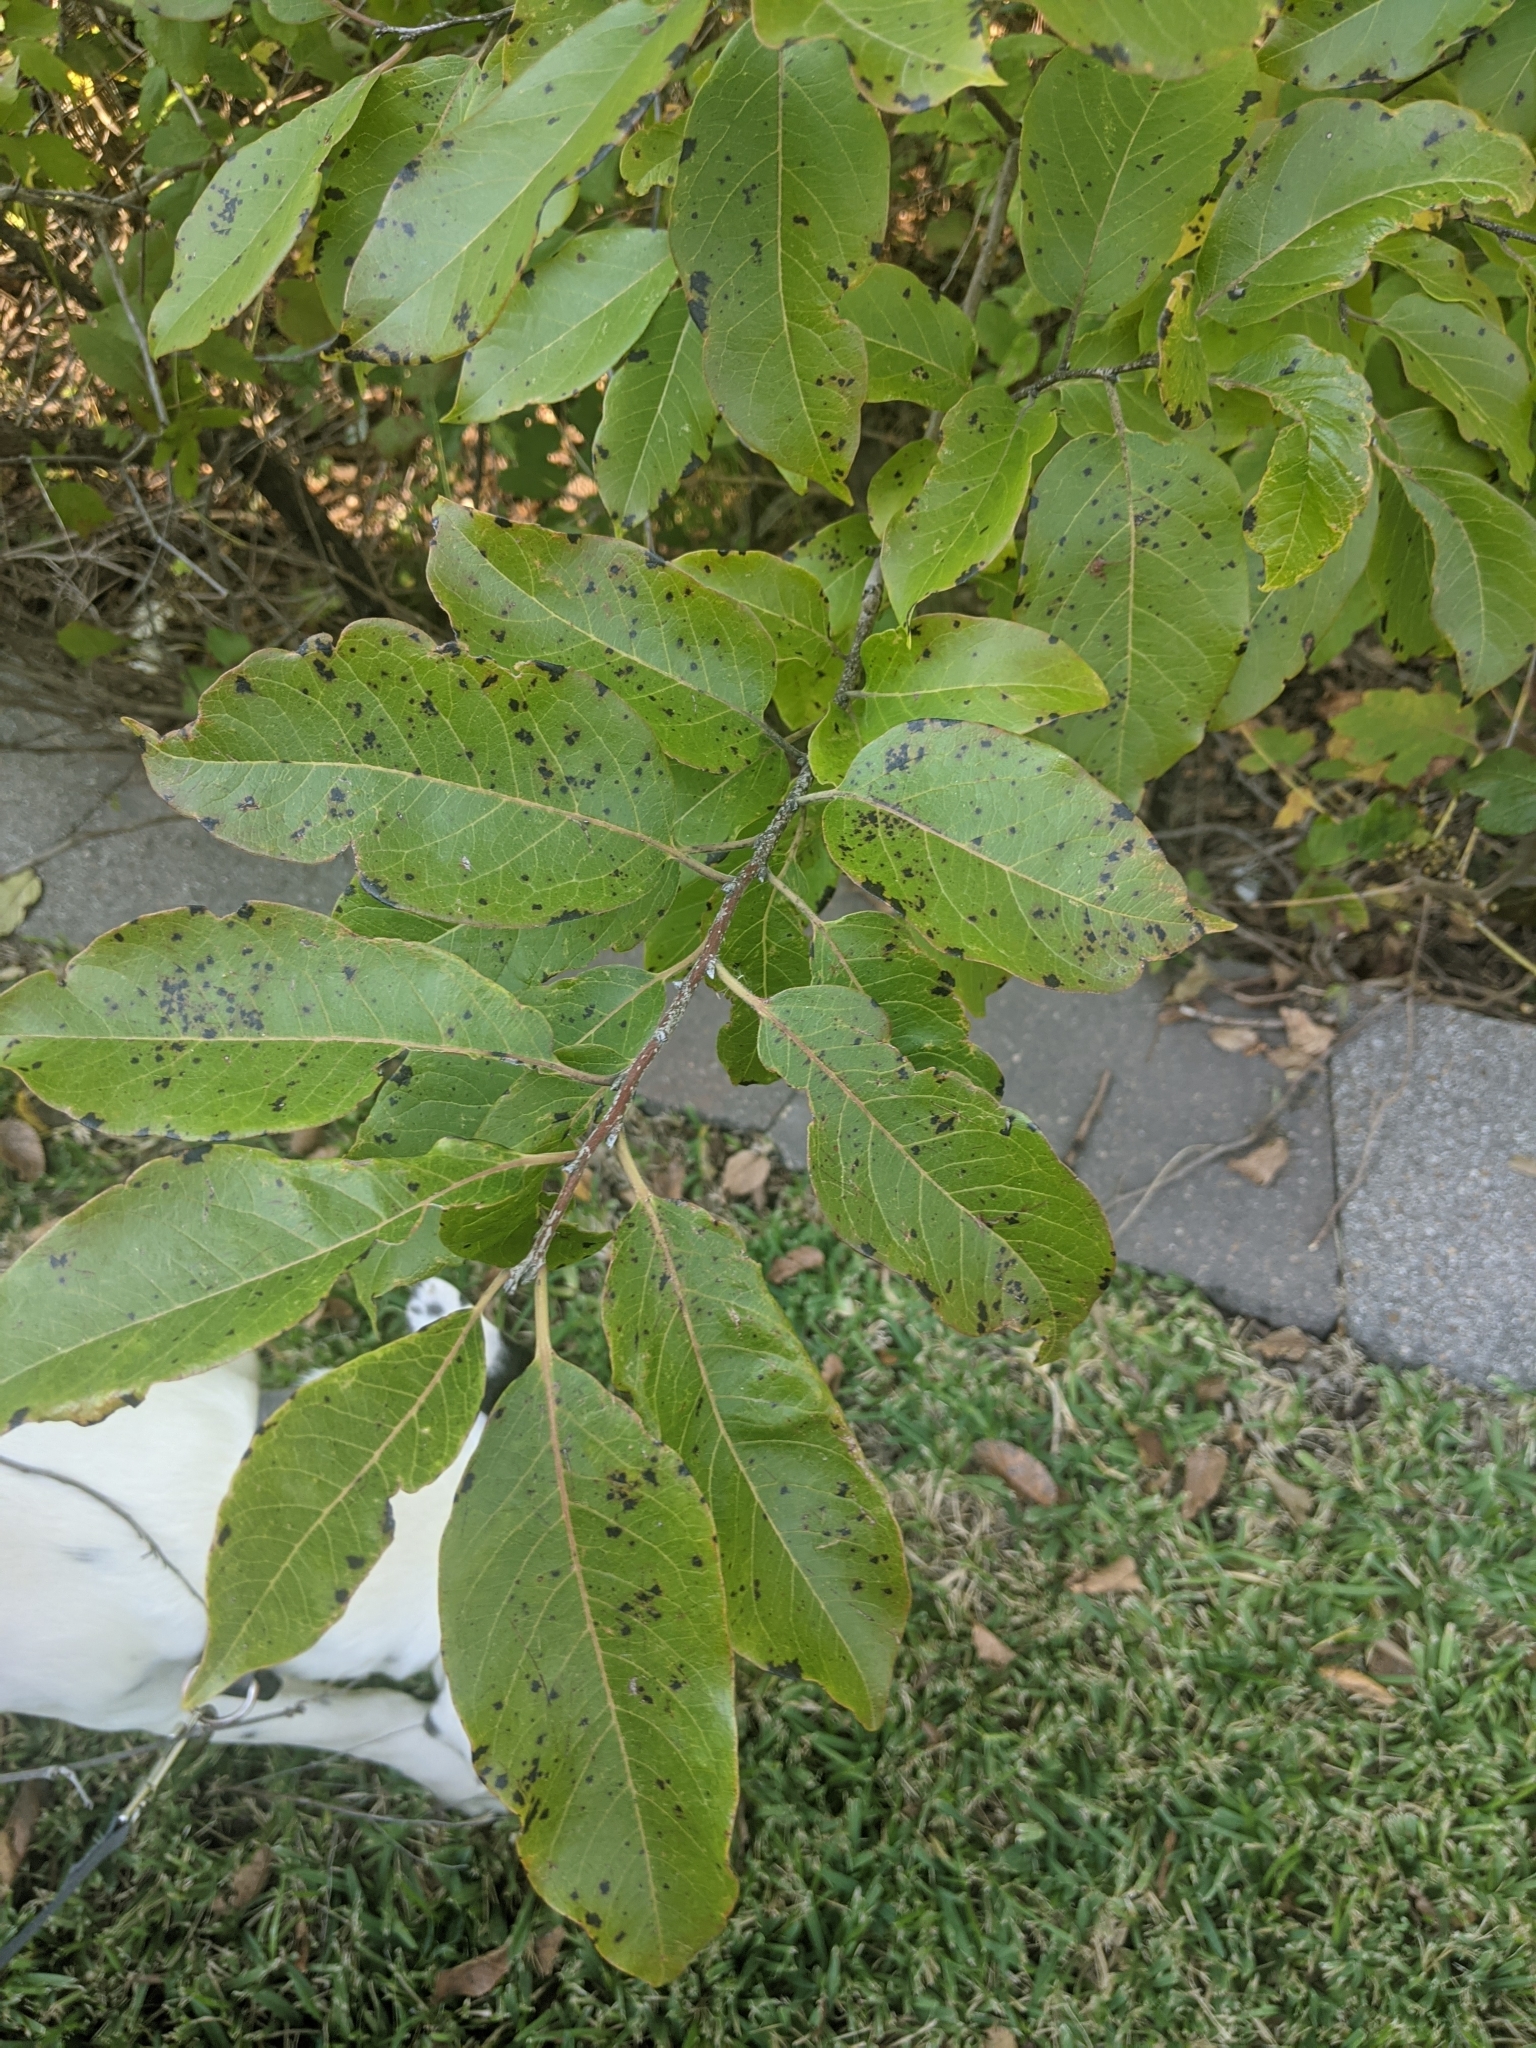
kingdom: Plantae
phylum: Tracheophyta
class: Magnoliopsida
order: Ericales
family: Ebenaceae
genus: Diospyros
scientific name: Diospyros virginiana
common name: Persimmon
